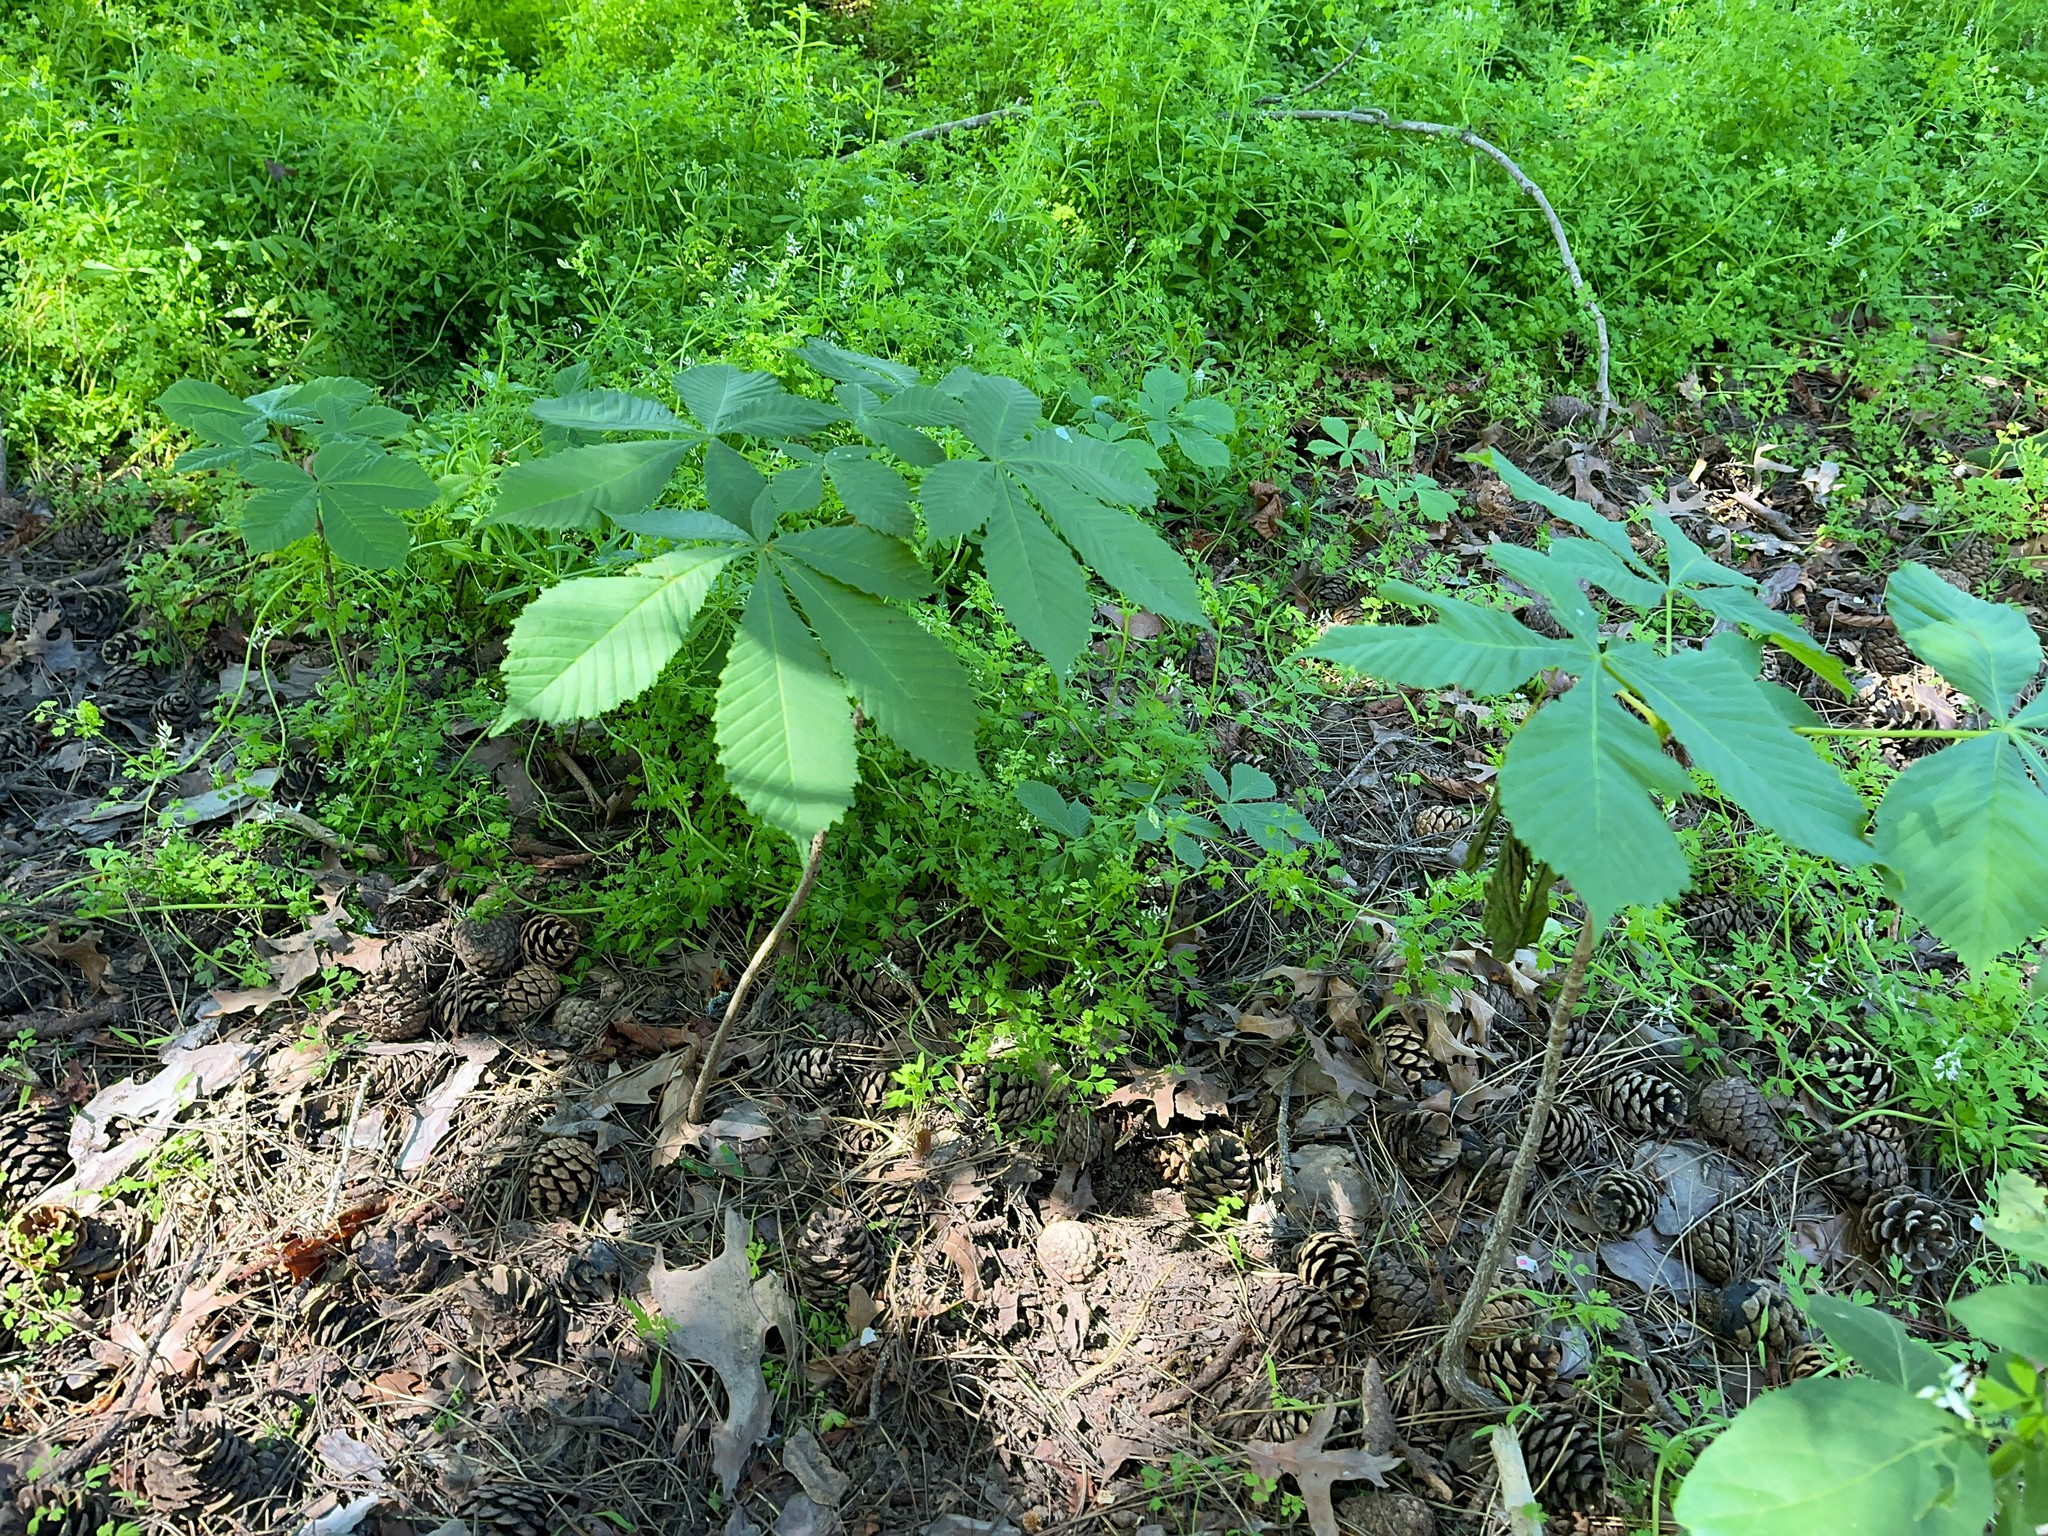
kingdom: Plantae
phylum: Tracheophyta
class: Magnoliopsida
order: Sapindales
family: Sapindaceae
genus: Aesculus
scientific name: Aesculus hippocastanum
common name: Horse-chestnut
